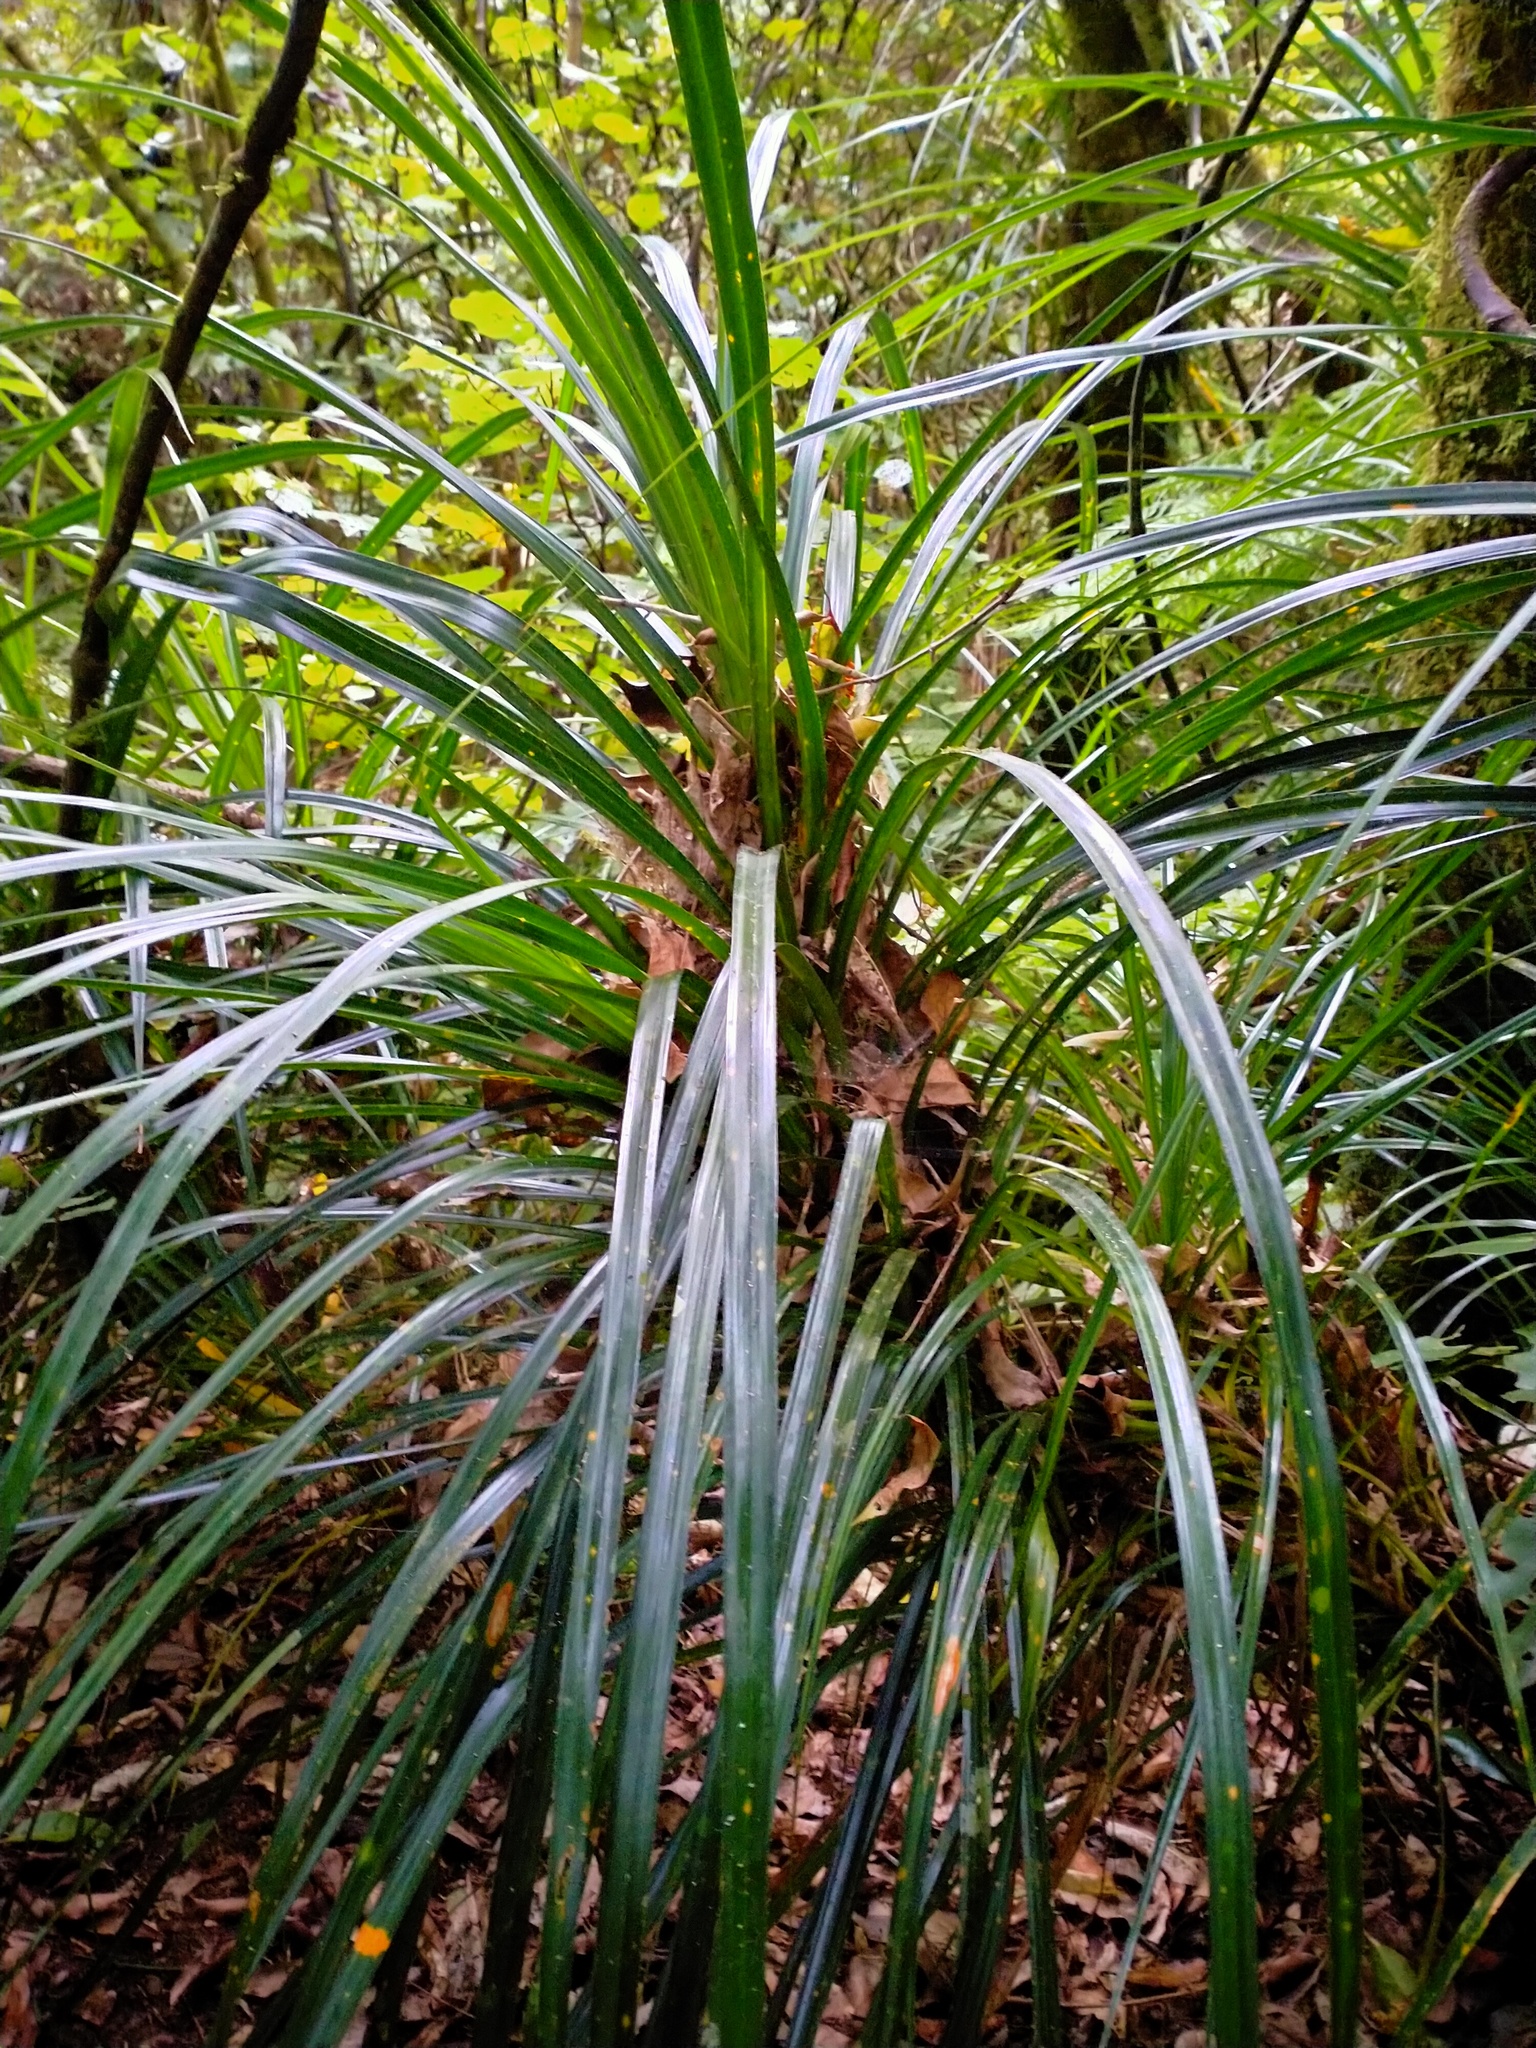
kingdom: Plantae
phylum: Tracheophyta
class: Liliopsida
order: Pandanales
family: Pandanaceae
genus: Freycinetia
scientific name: Freycinetia banksii
